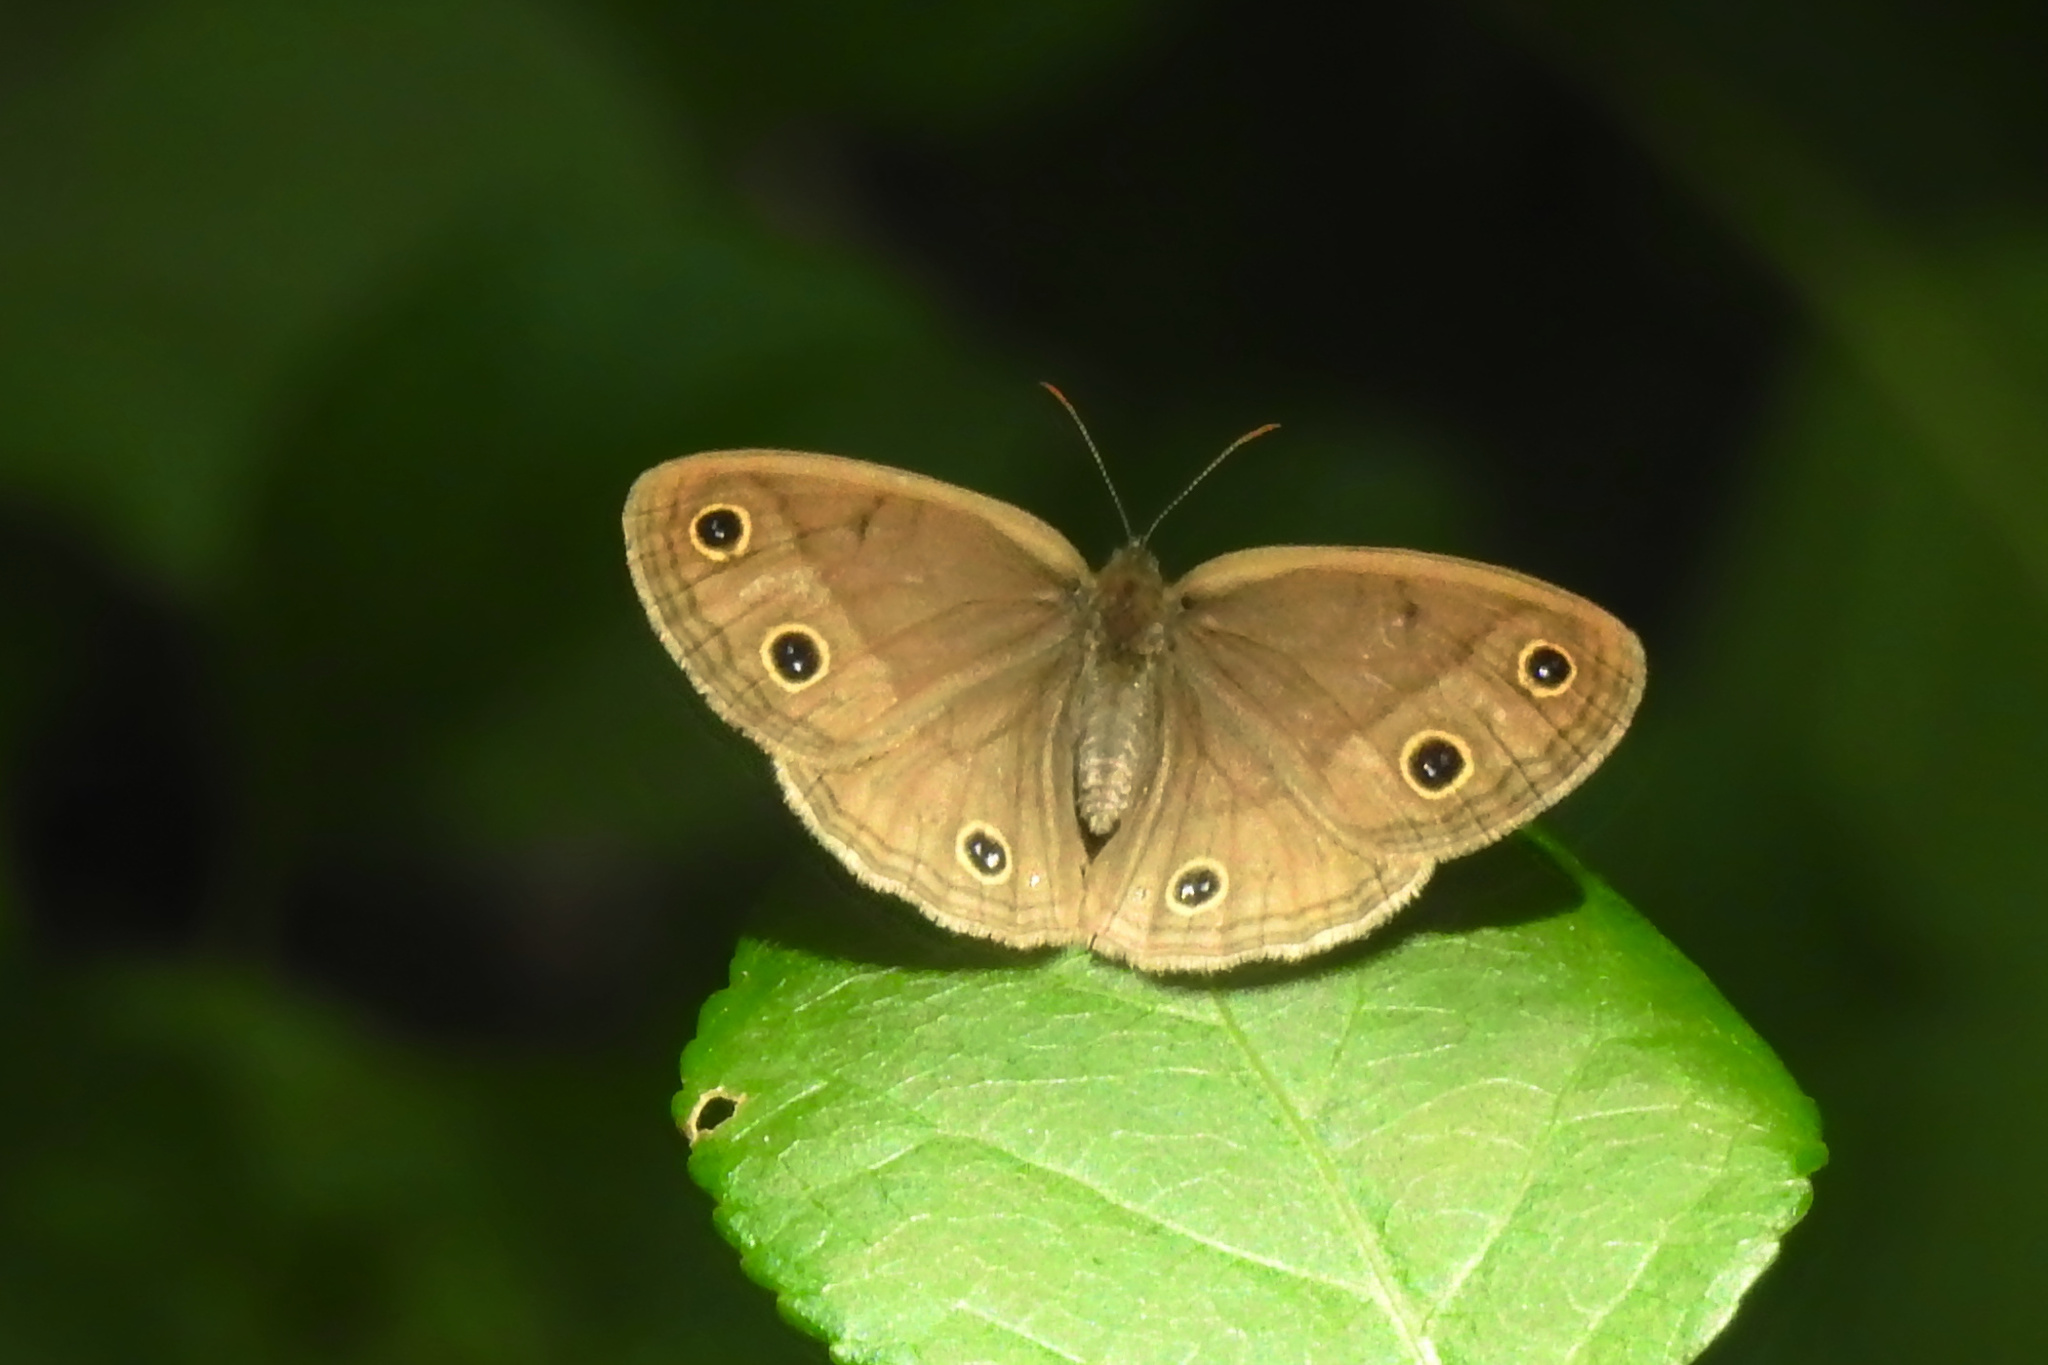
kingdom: Animalia
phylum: Arthropoda
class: Insecta
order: Lepidoptera
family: Nymphalidae
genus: Euptychia
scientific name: Euptychia cymela
